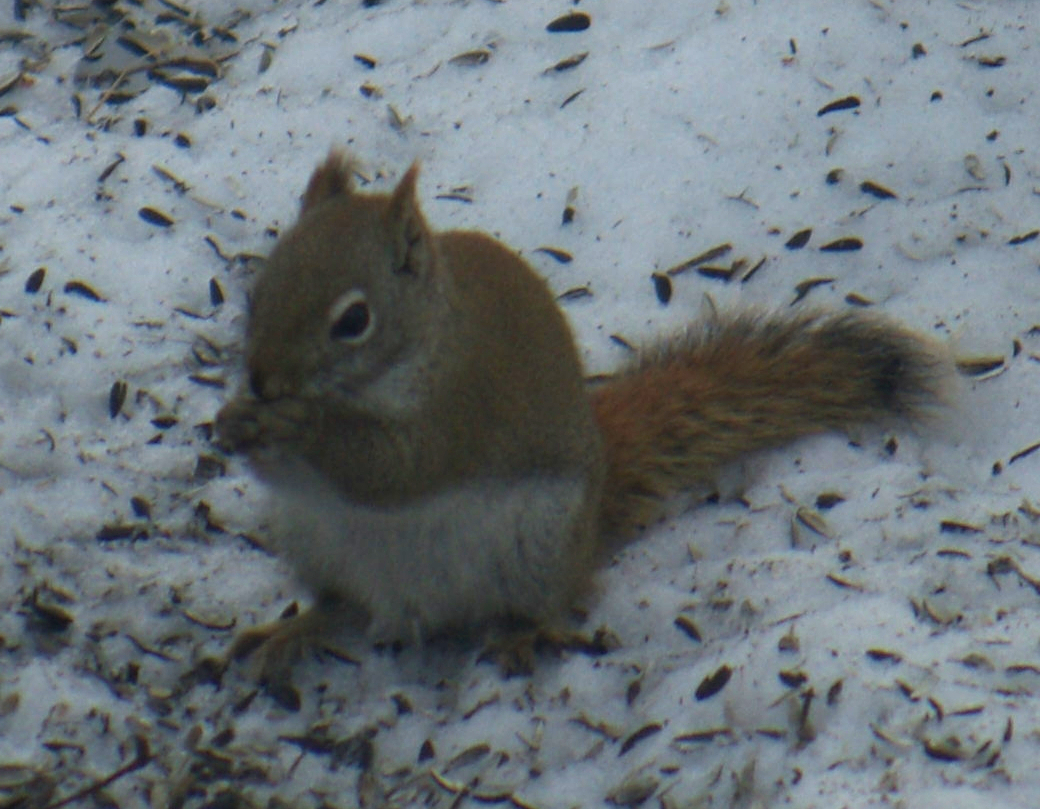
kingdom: Animalia
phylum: Chordata
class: Mammalia
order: Rodentia
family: Sciuridae
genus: Tamiasciurus
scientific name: Tamiasciurus hudsonicus
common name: Red squirrel
